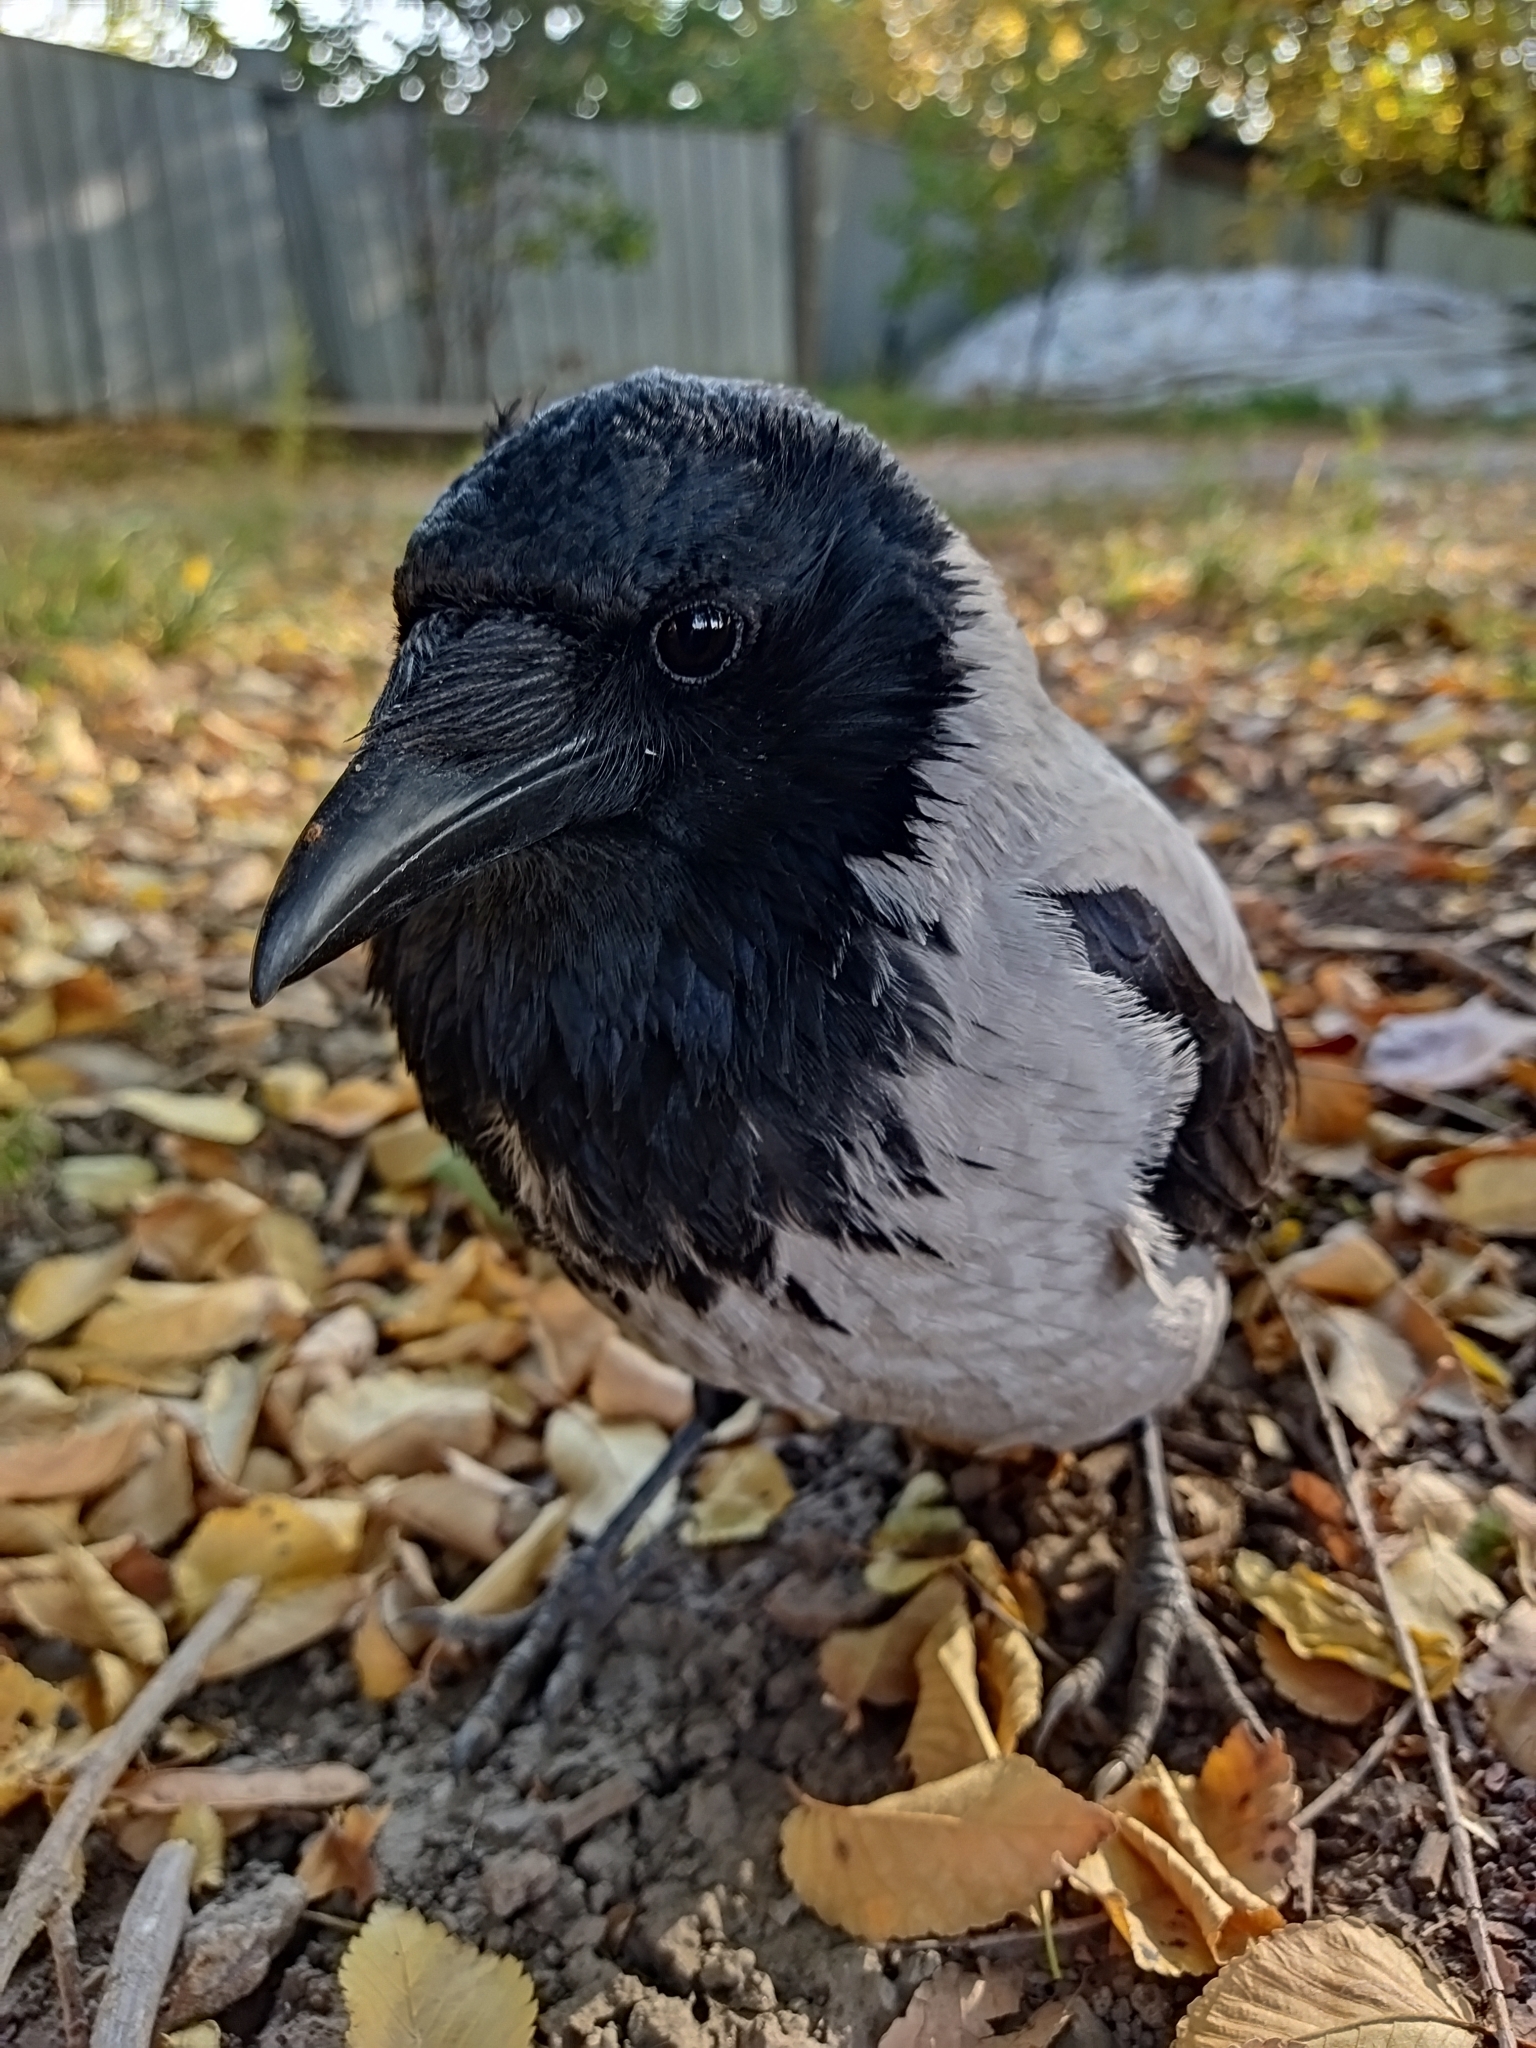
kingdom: Animalia
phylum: Chordata
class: Aves
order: Passeriformes
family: Corvidae
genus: Corvus
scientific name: Corvus cornix
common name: Hooded crow
